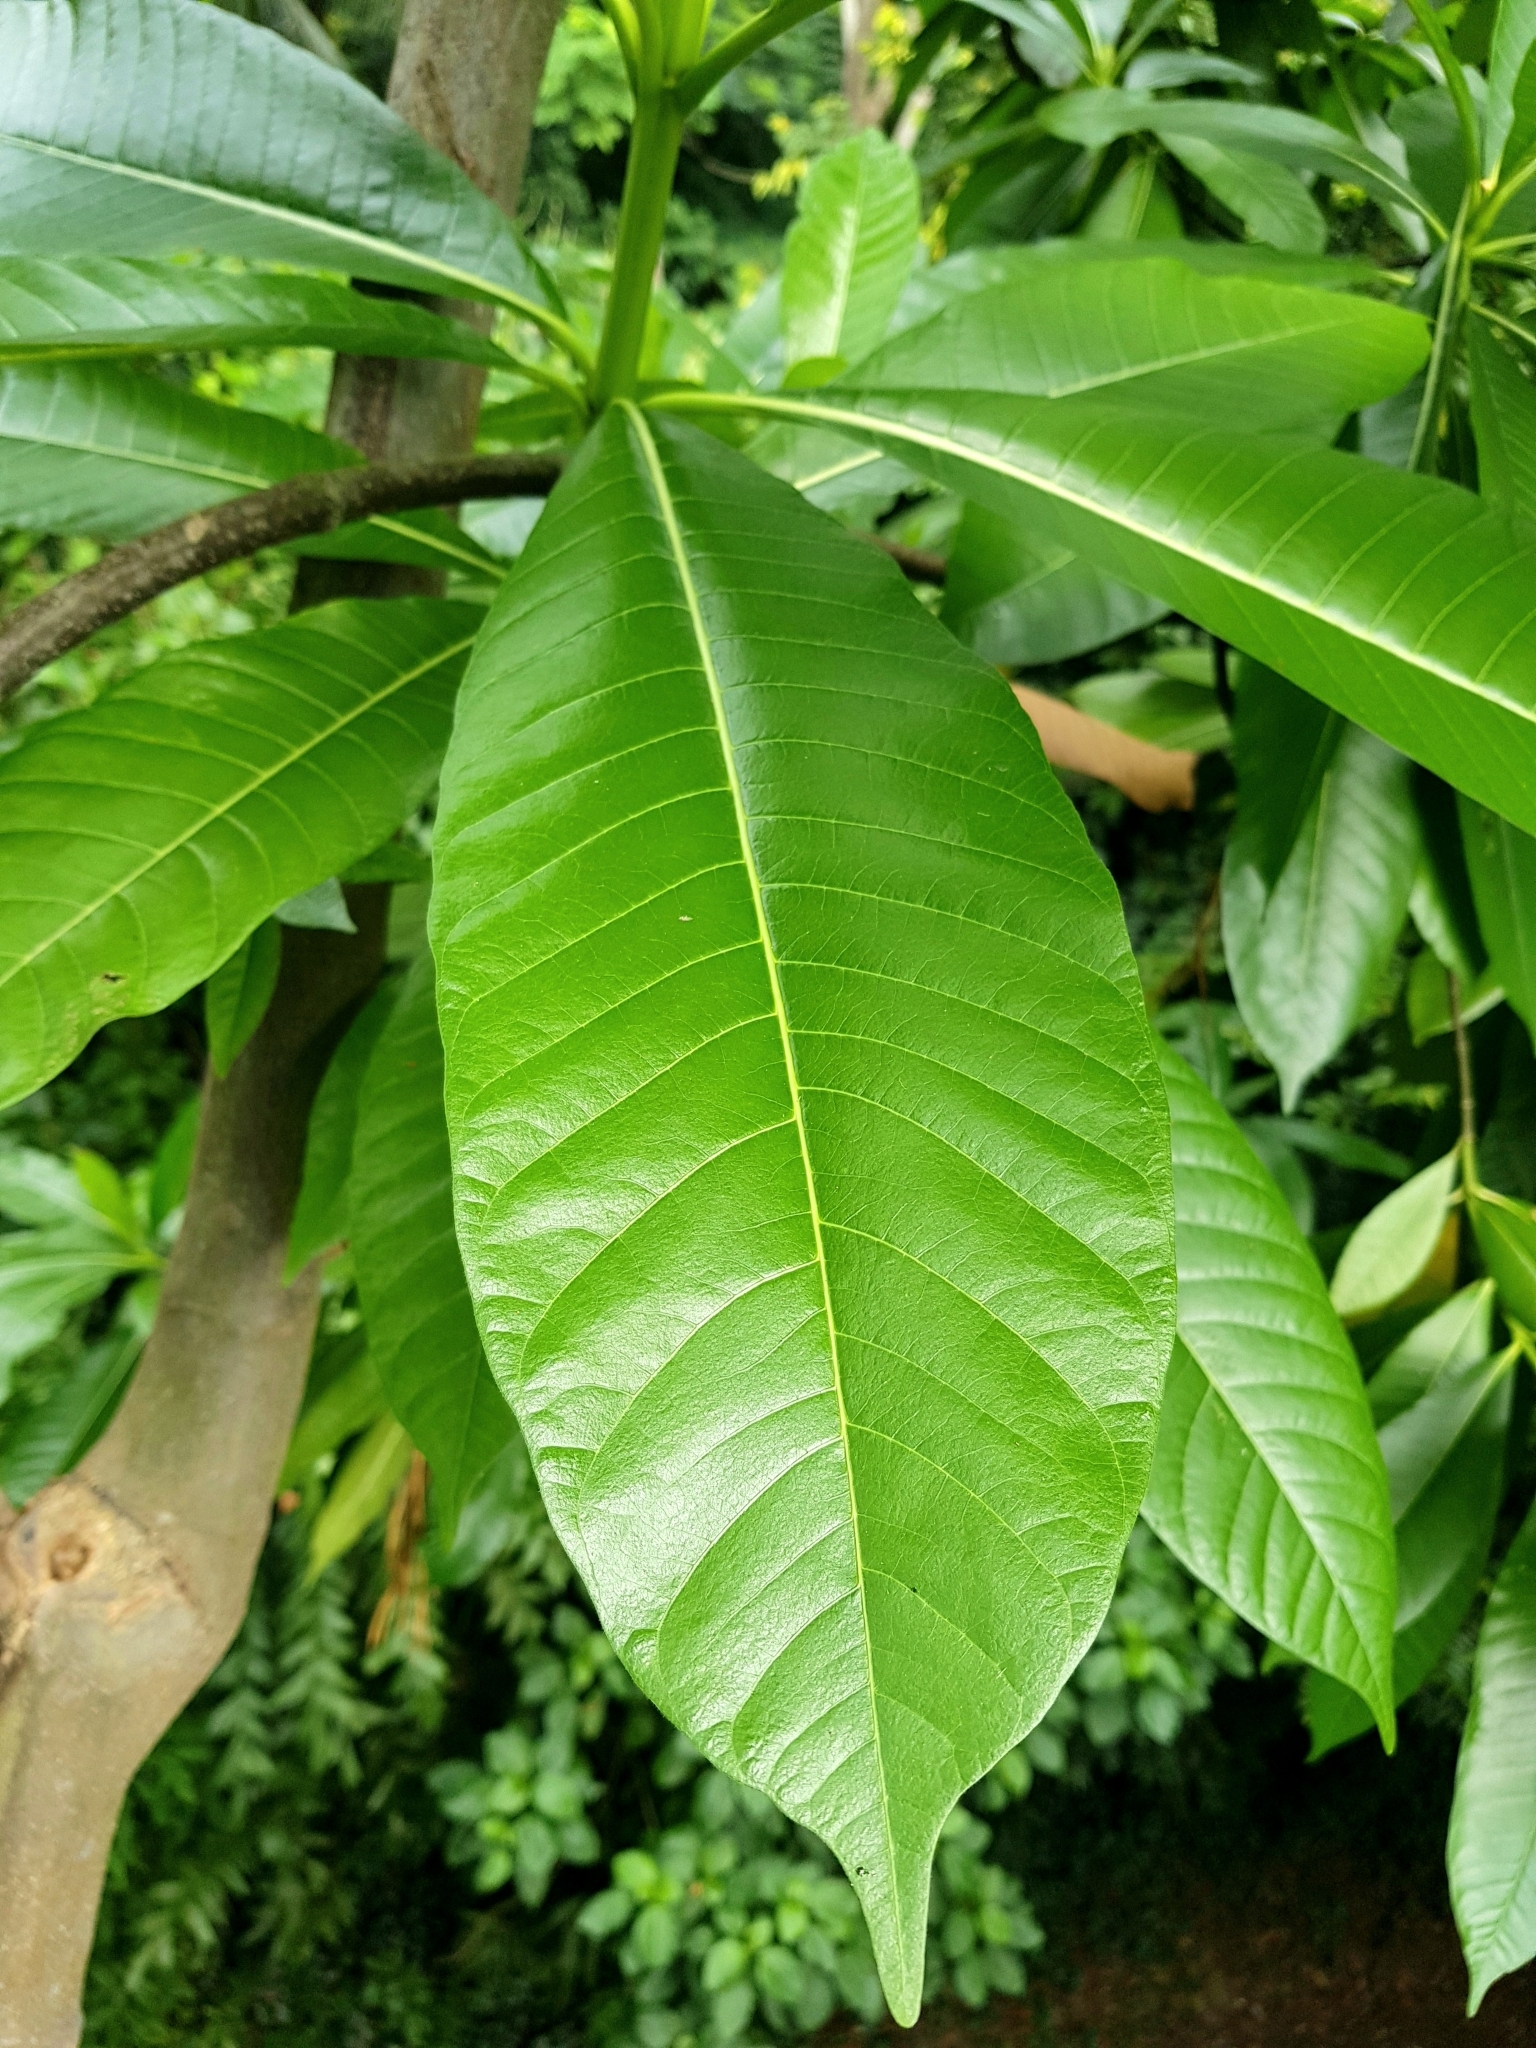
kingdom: Plantae
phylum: Tracheophyta
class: Magnoliopsida
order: Gentianales
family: Apocynaceae
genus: Alstonia
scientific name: Alstonia macrophylla
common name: Deviltree
